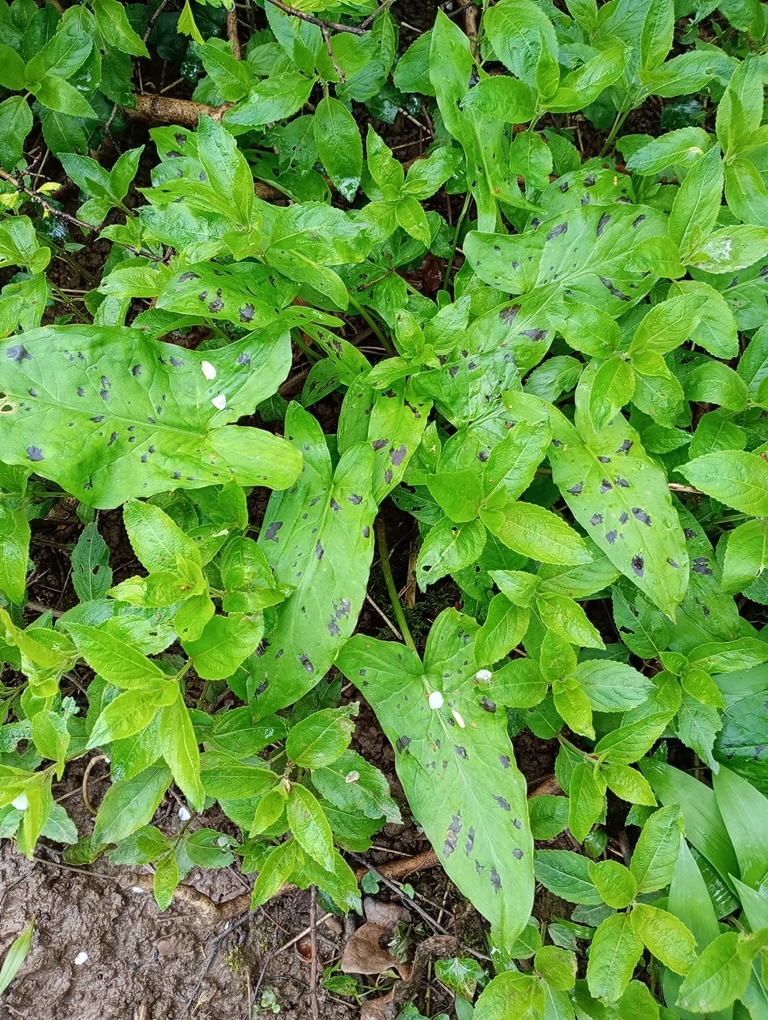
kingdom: Plantae
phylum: Tracheophyta
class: Liliopsida
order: Alismatales
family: Araceae
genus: Arum
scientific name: Arum maculatum
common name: Lords-and-ladies
